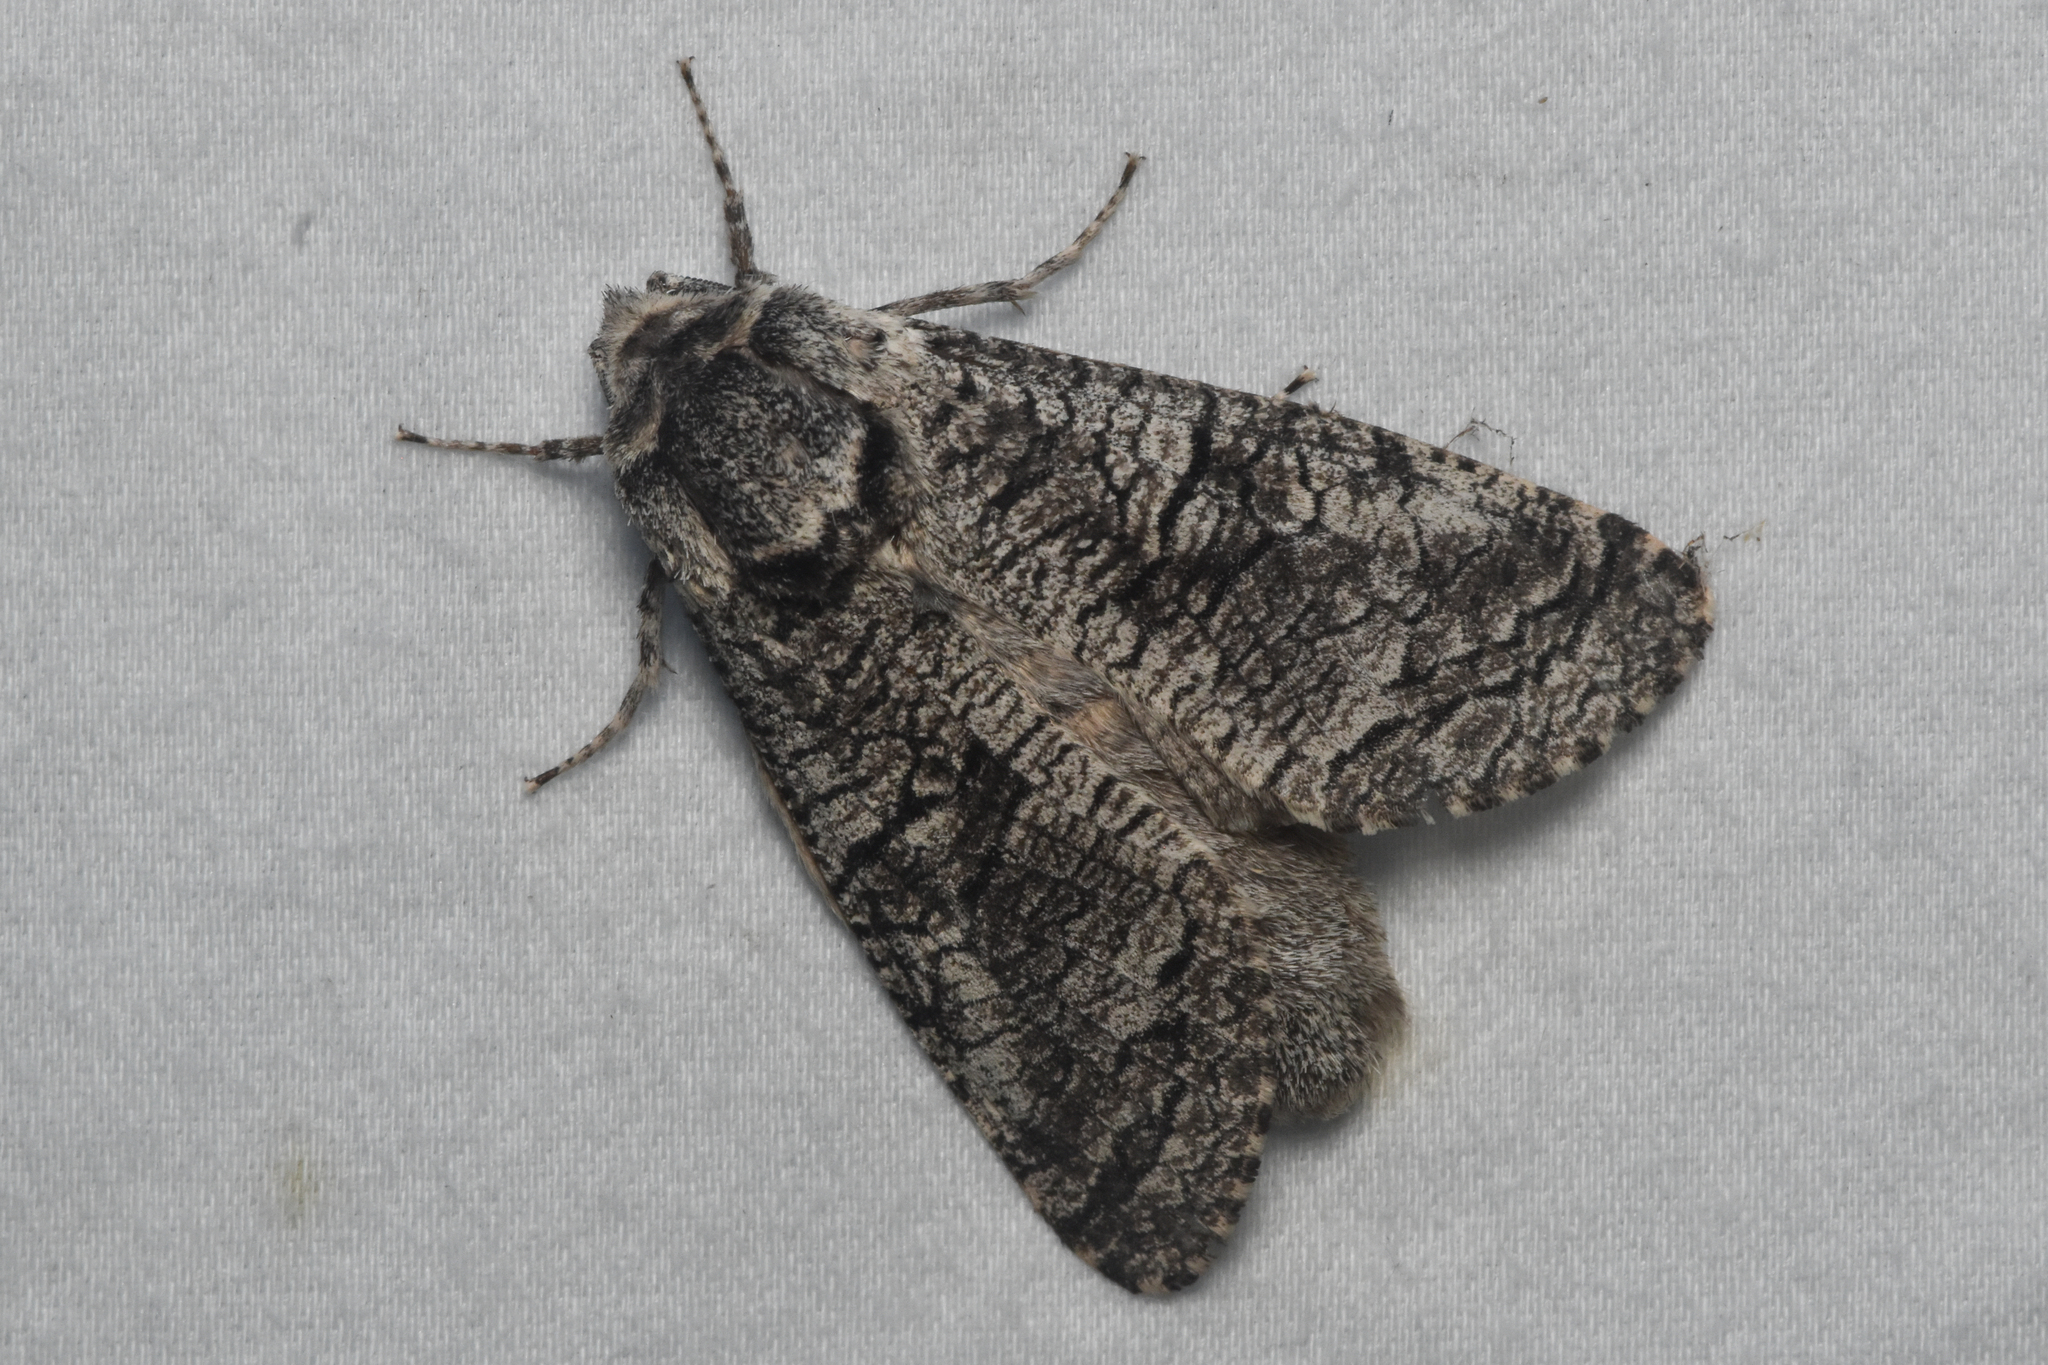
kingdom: Animalia
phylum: Arthropoda
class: Insecta
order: Lepidoptera
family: Cossidae
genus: Acossus
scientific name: Acossus populi
